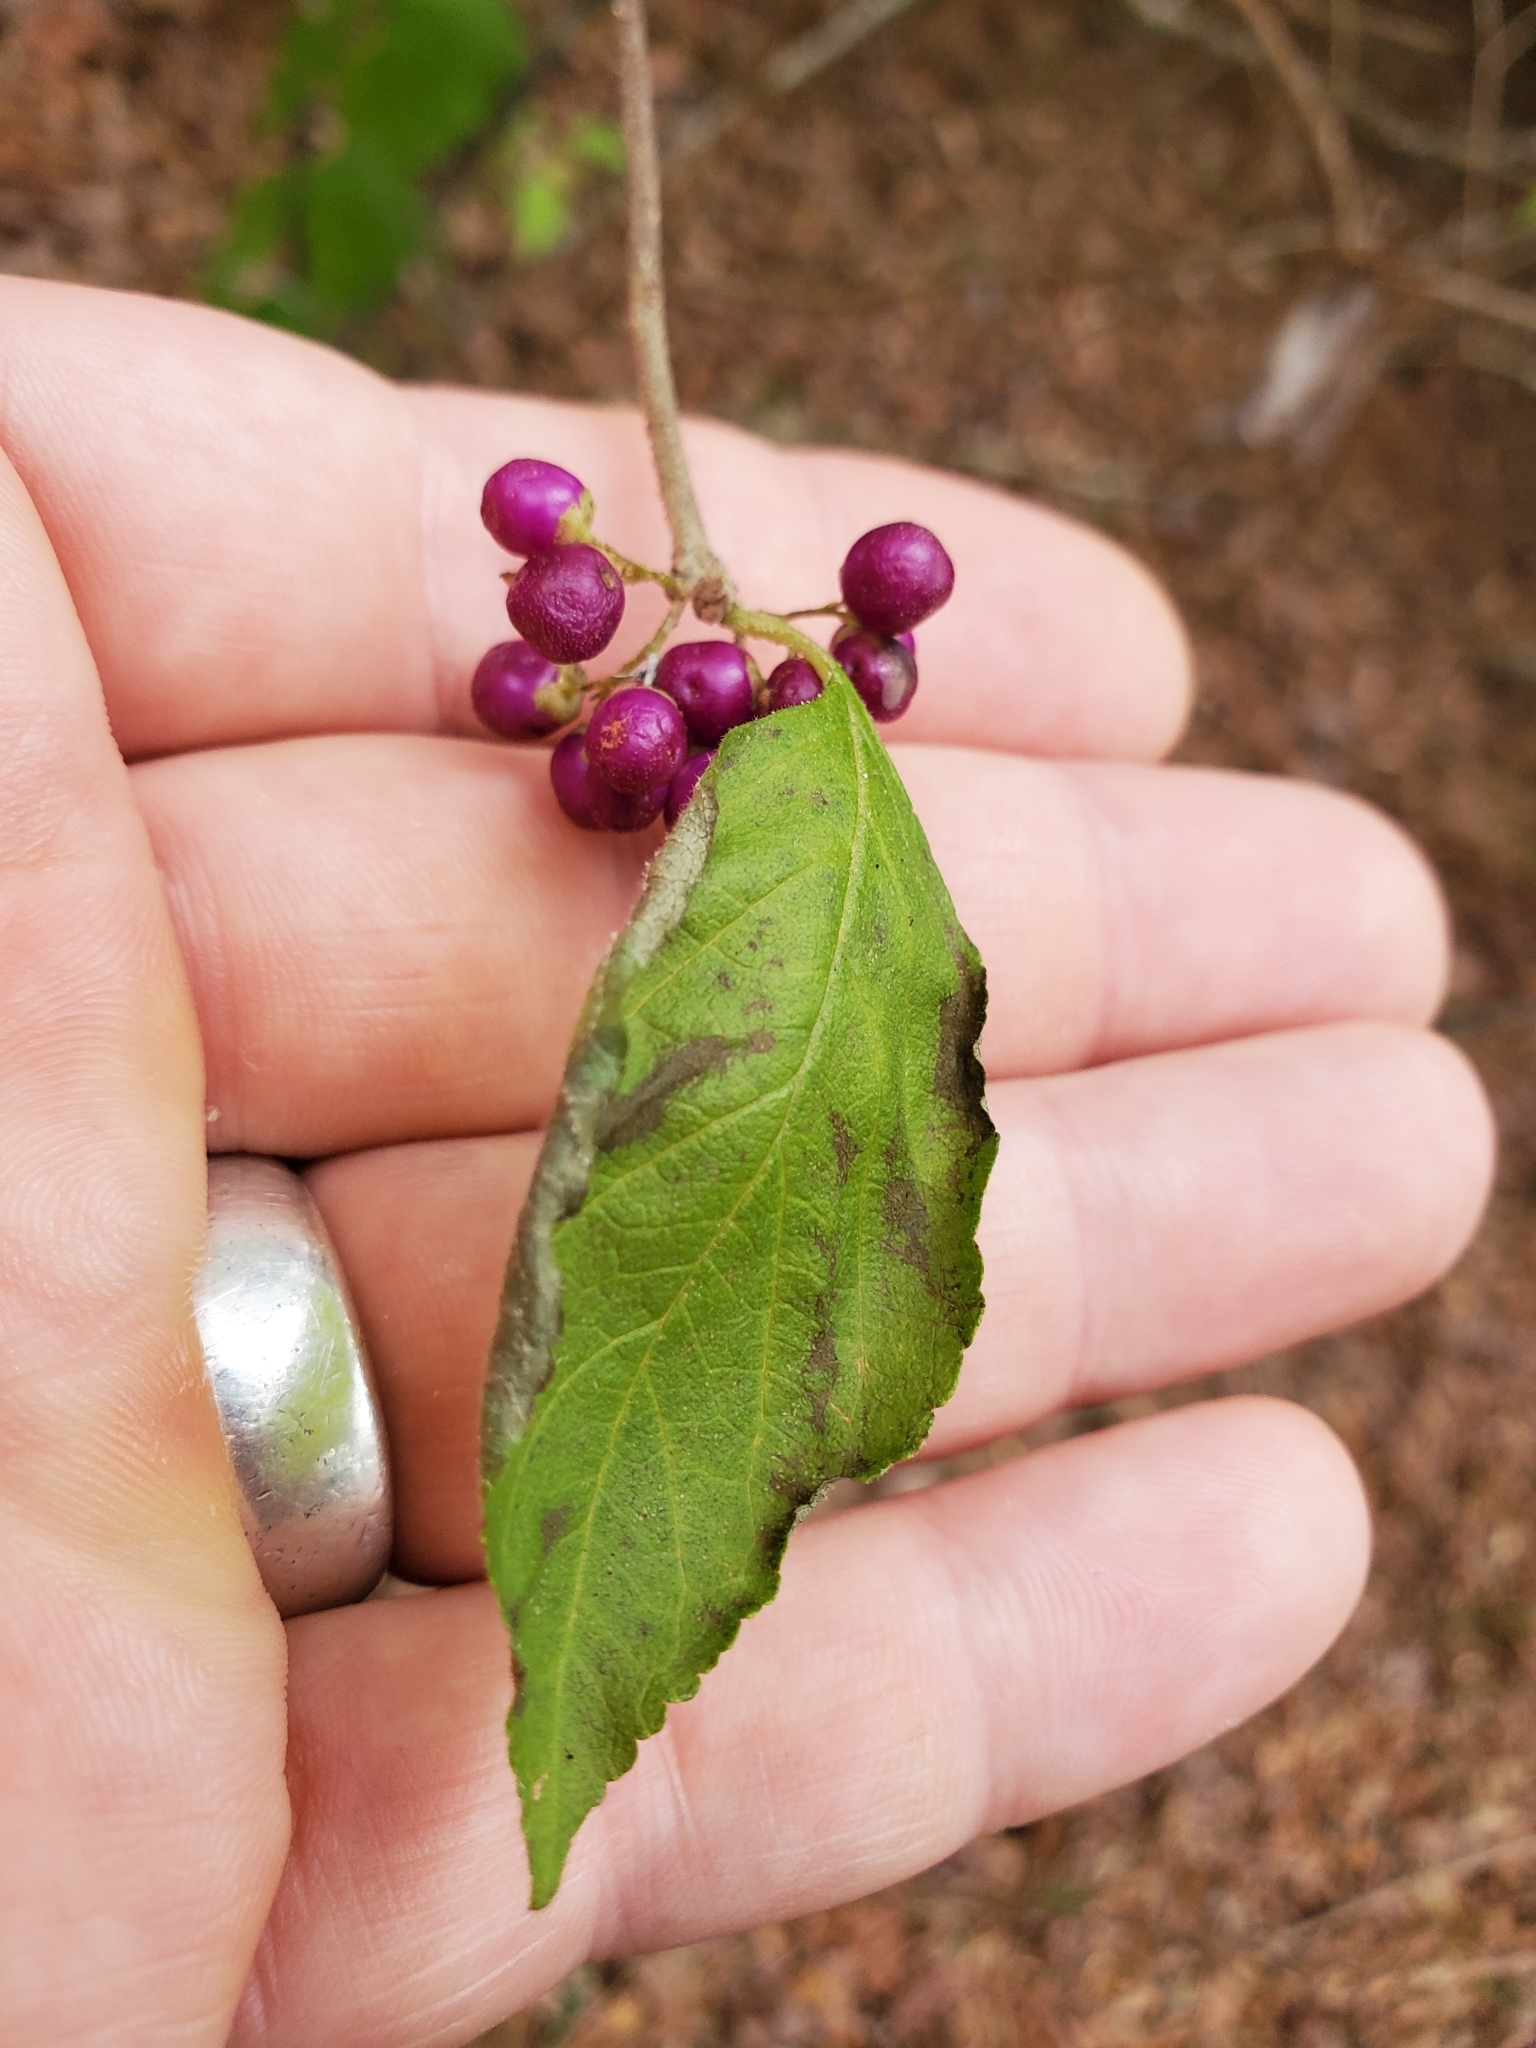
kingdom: Plantae
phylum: Tracheophyta
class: Magnoliopsida
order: Lamiales
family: Lamiaceae
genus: Callicarpa
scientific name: Callicarpa americana
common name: American beautyberry
